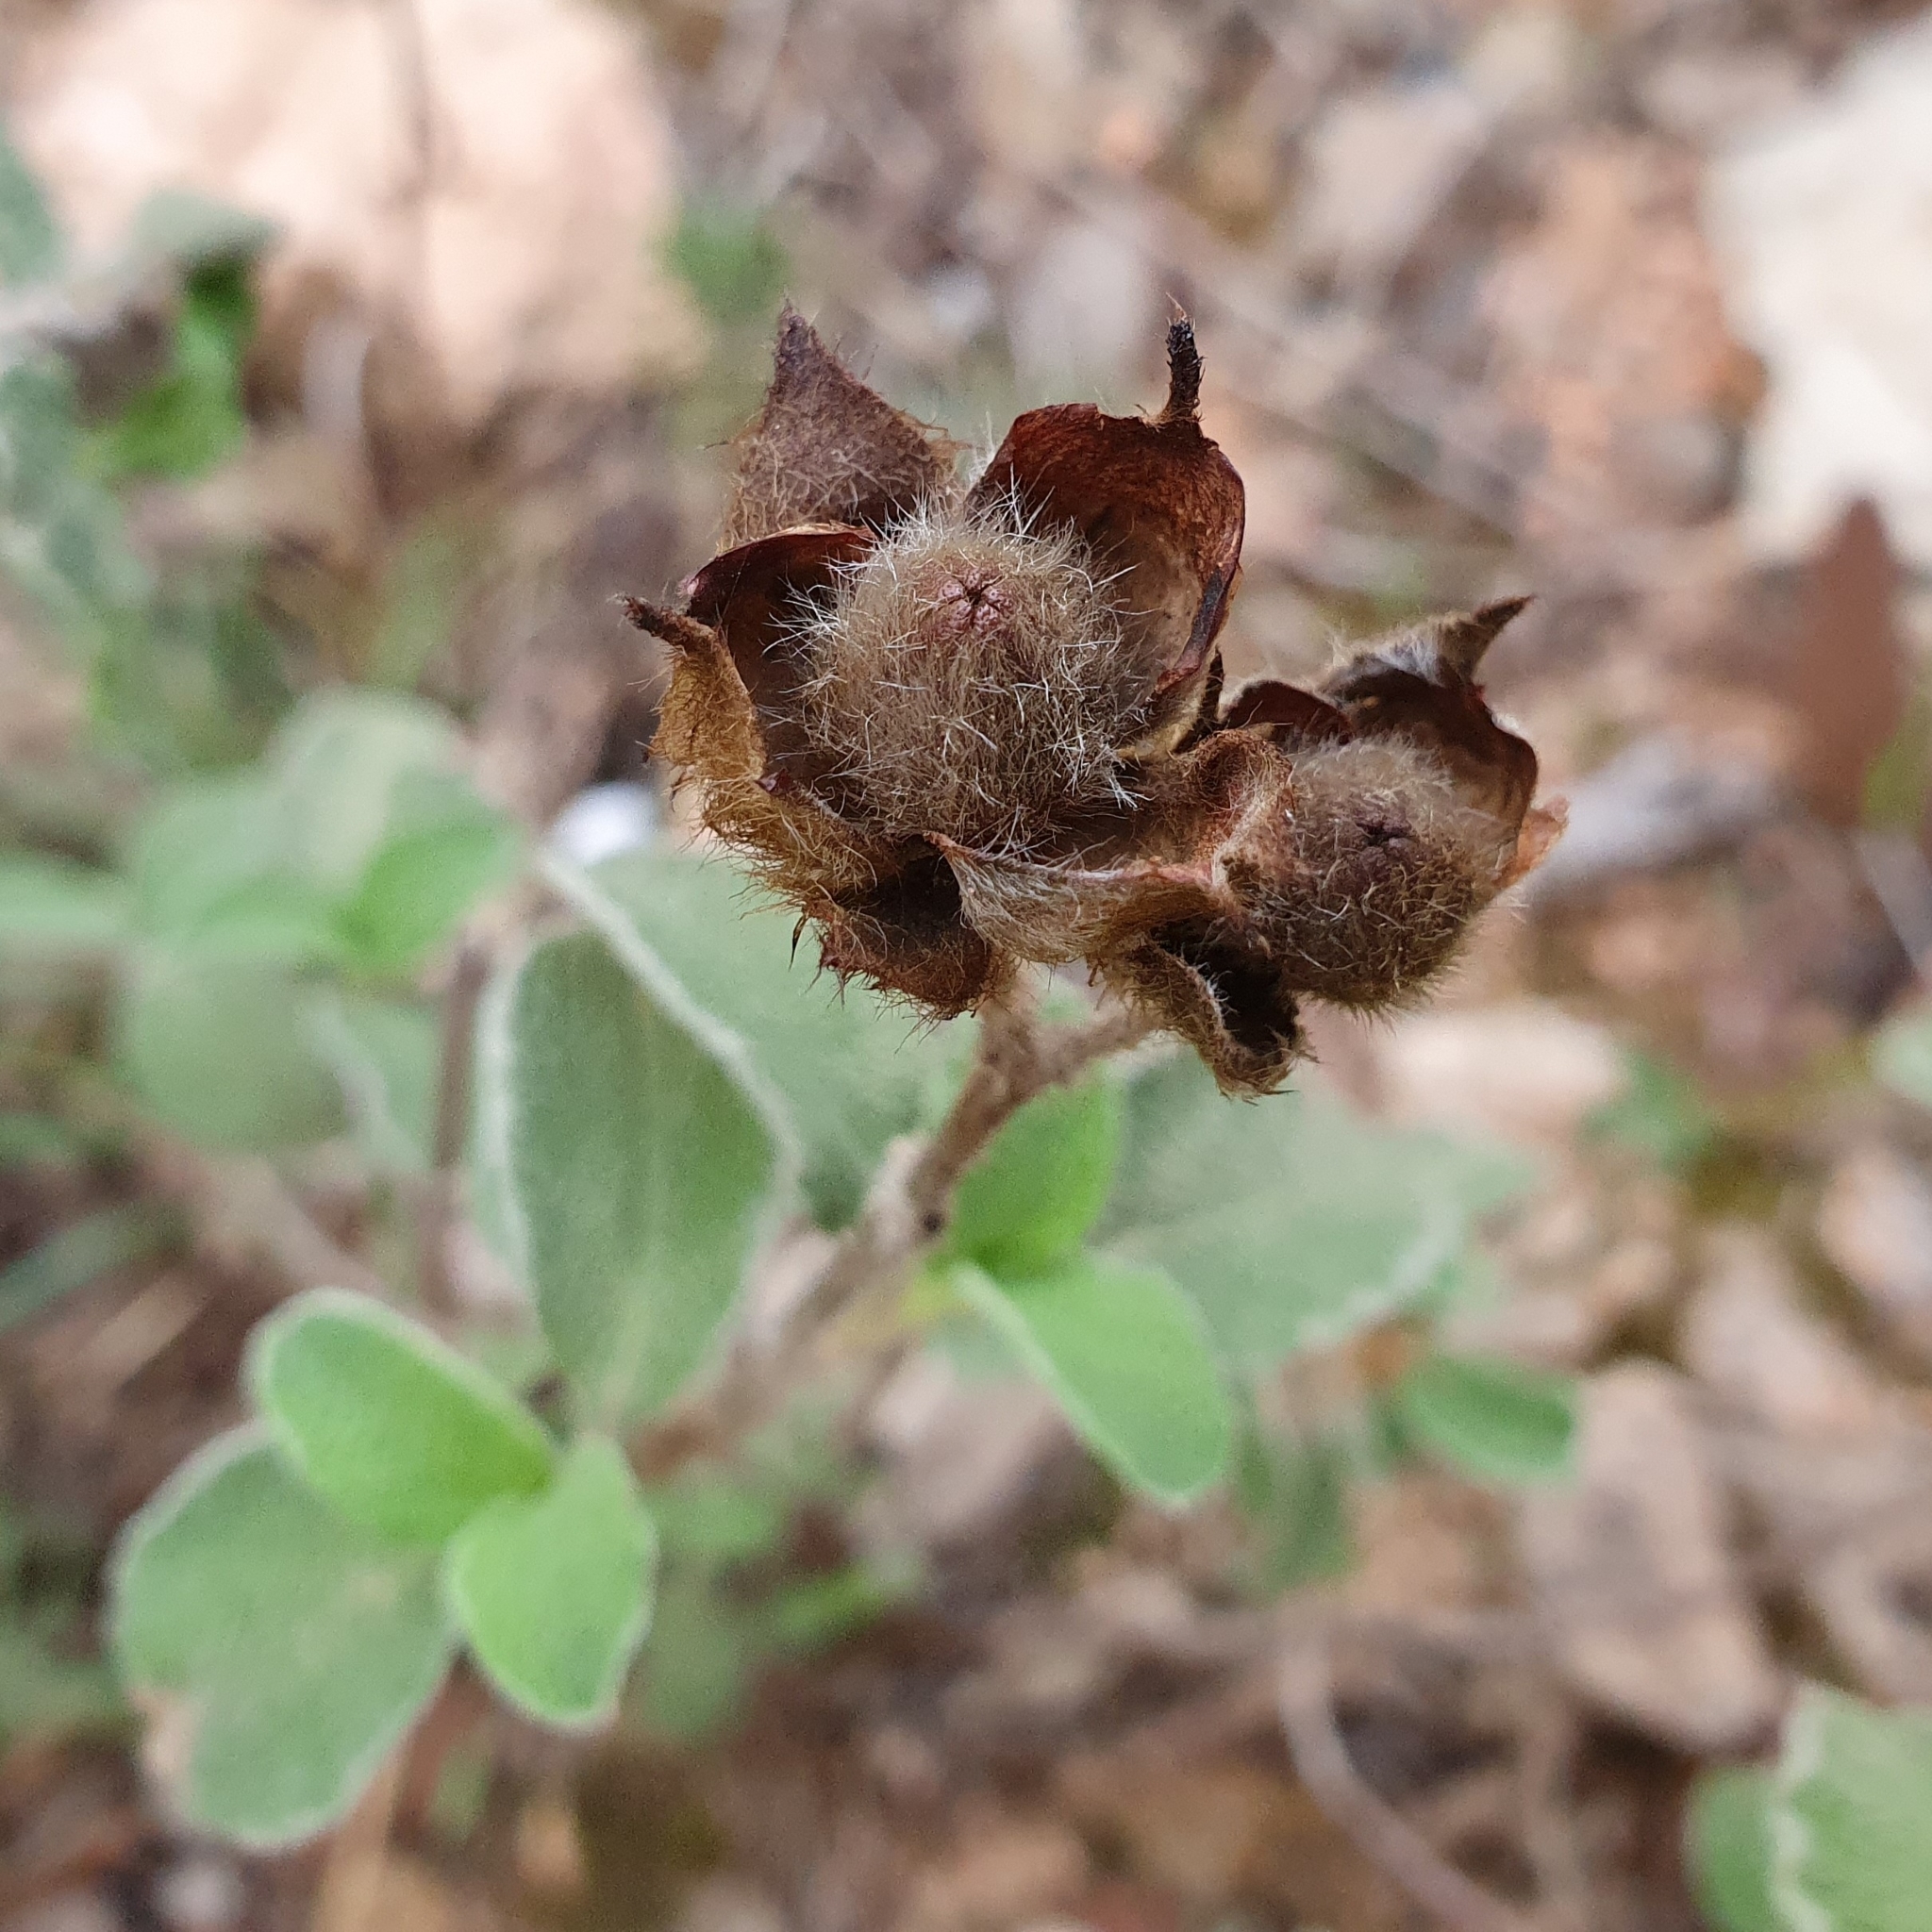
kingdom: Plantae
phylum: Tracheophyta
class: Magnoliopsida
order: Malvales
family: Cistaceae
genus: Cistus
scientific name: Cistus creticus
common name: Cretan rockrose
